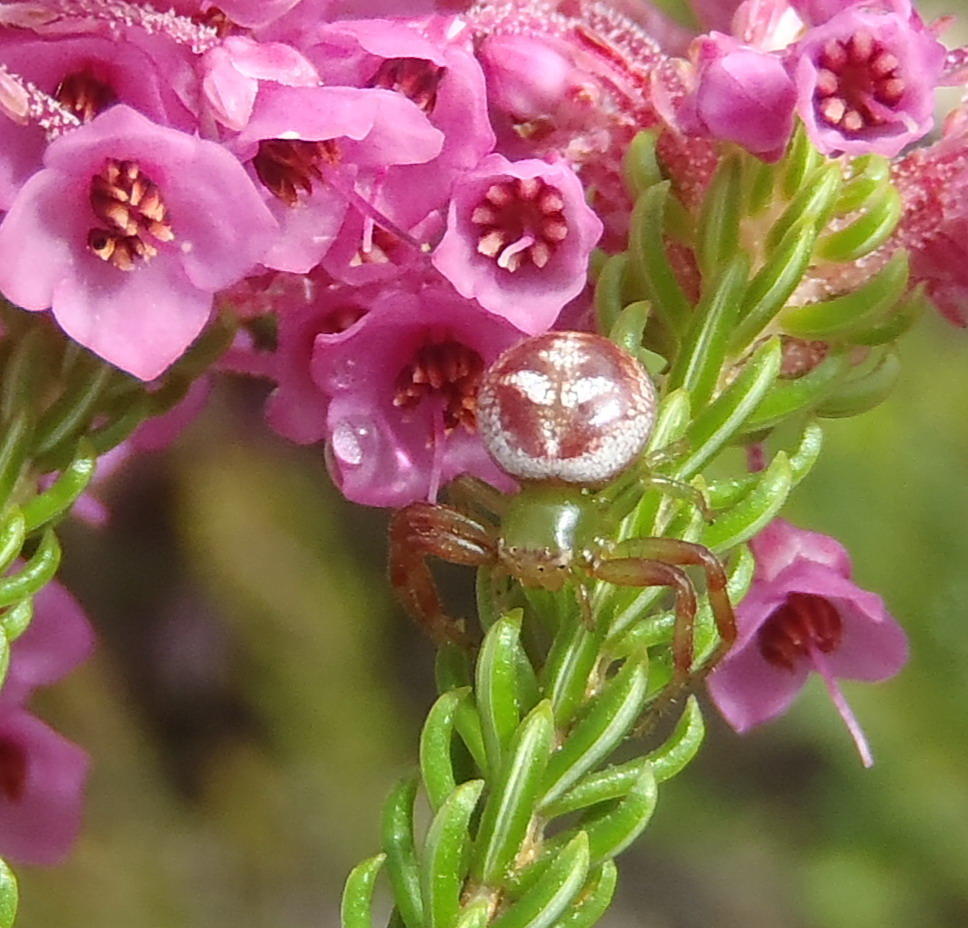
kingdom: Animalia
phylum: Arthropoda
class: Arachnida
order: Araneae
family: Thomisidae
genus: Synema
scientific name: Synema imitatrix
